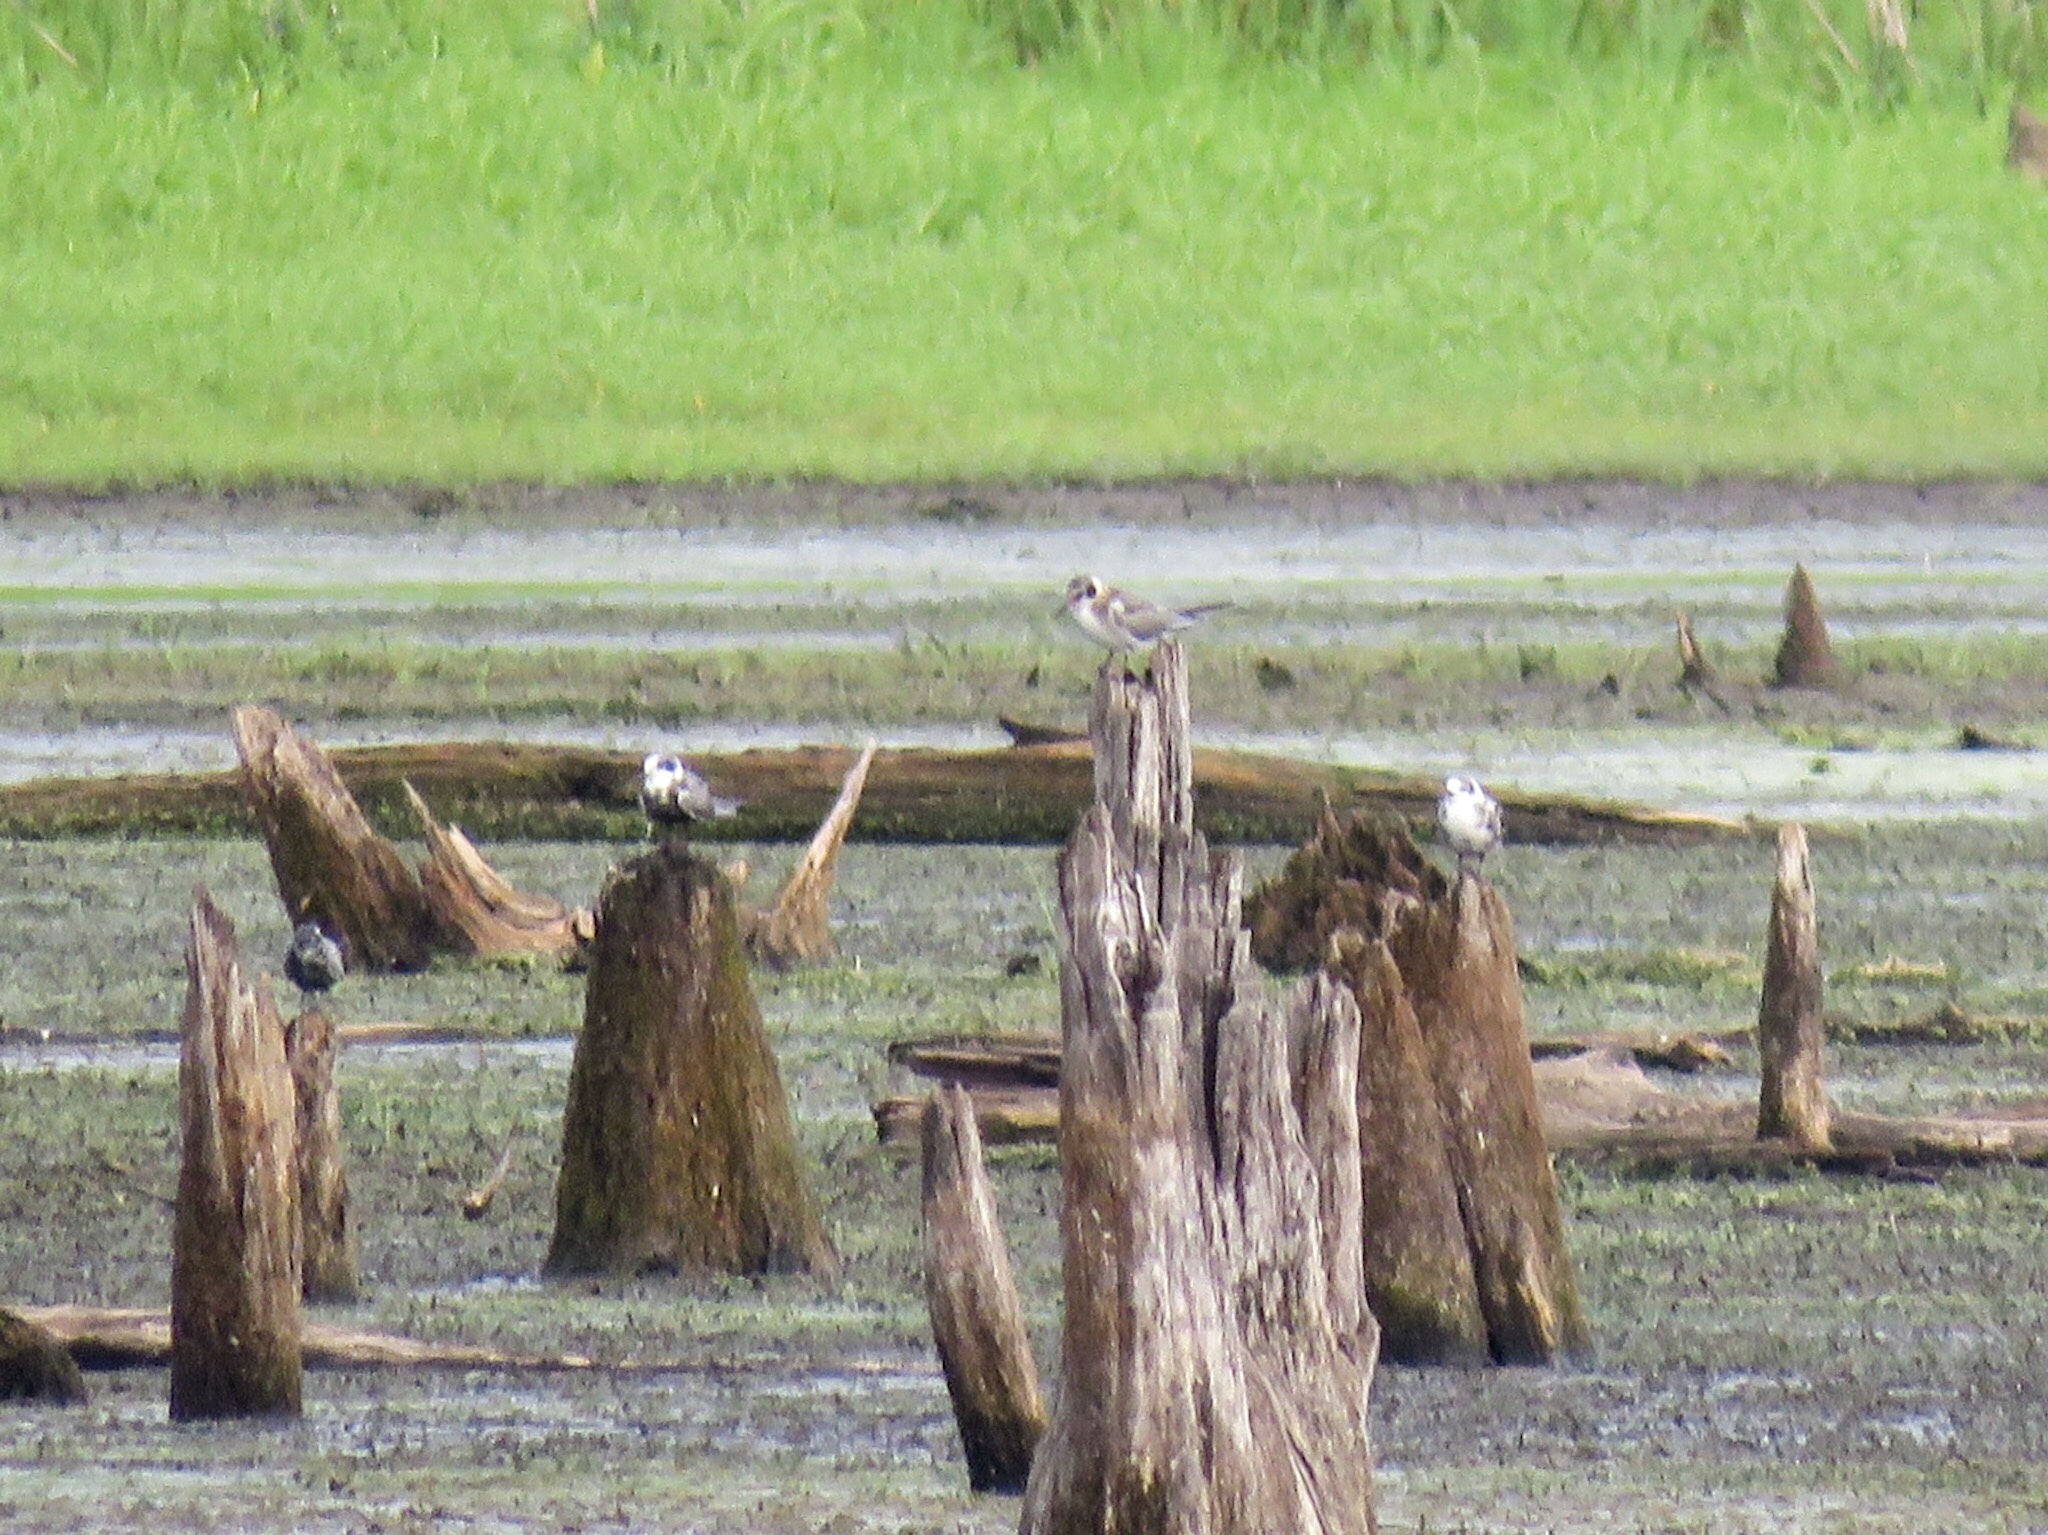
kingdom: Animalia
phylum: Chordata
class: Aves
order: Charadriiformes
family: Laridae
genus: Chlidonias
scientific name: Chlidonias niger
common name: Black tern
